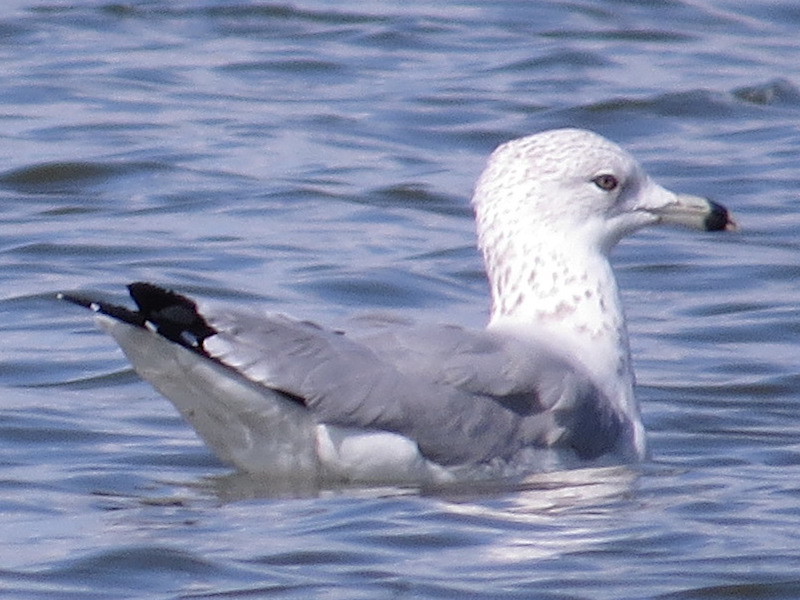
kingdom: Animalia
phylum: Chordata
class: Aves
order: Charadriiformes
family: Laridae
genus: Larus
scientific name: Larus delawarensis
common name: Ring-billed gull
